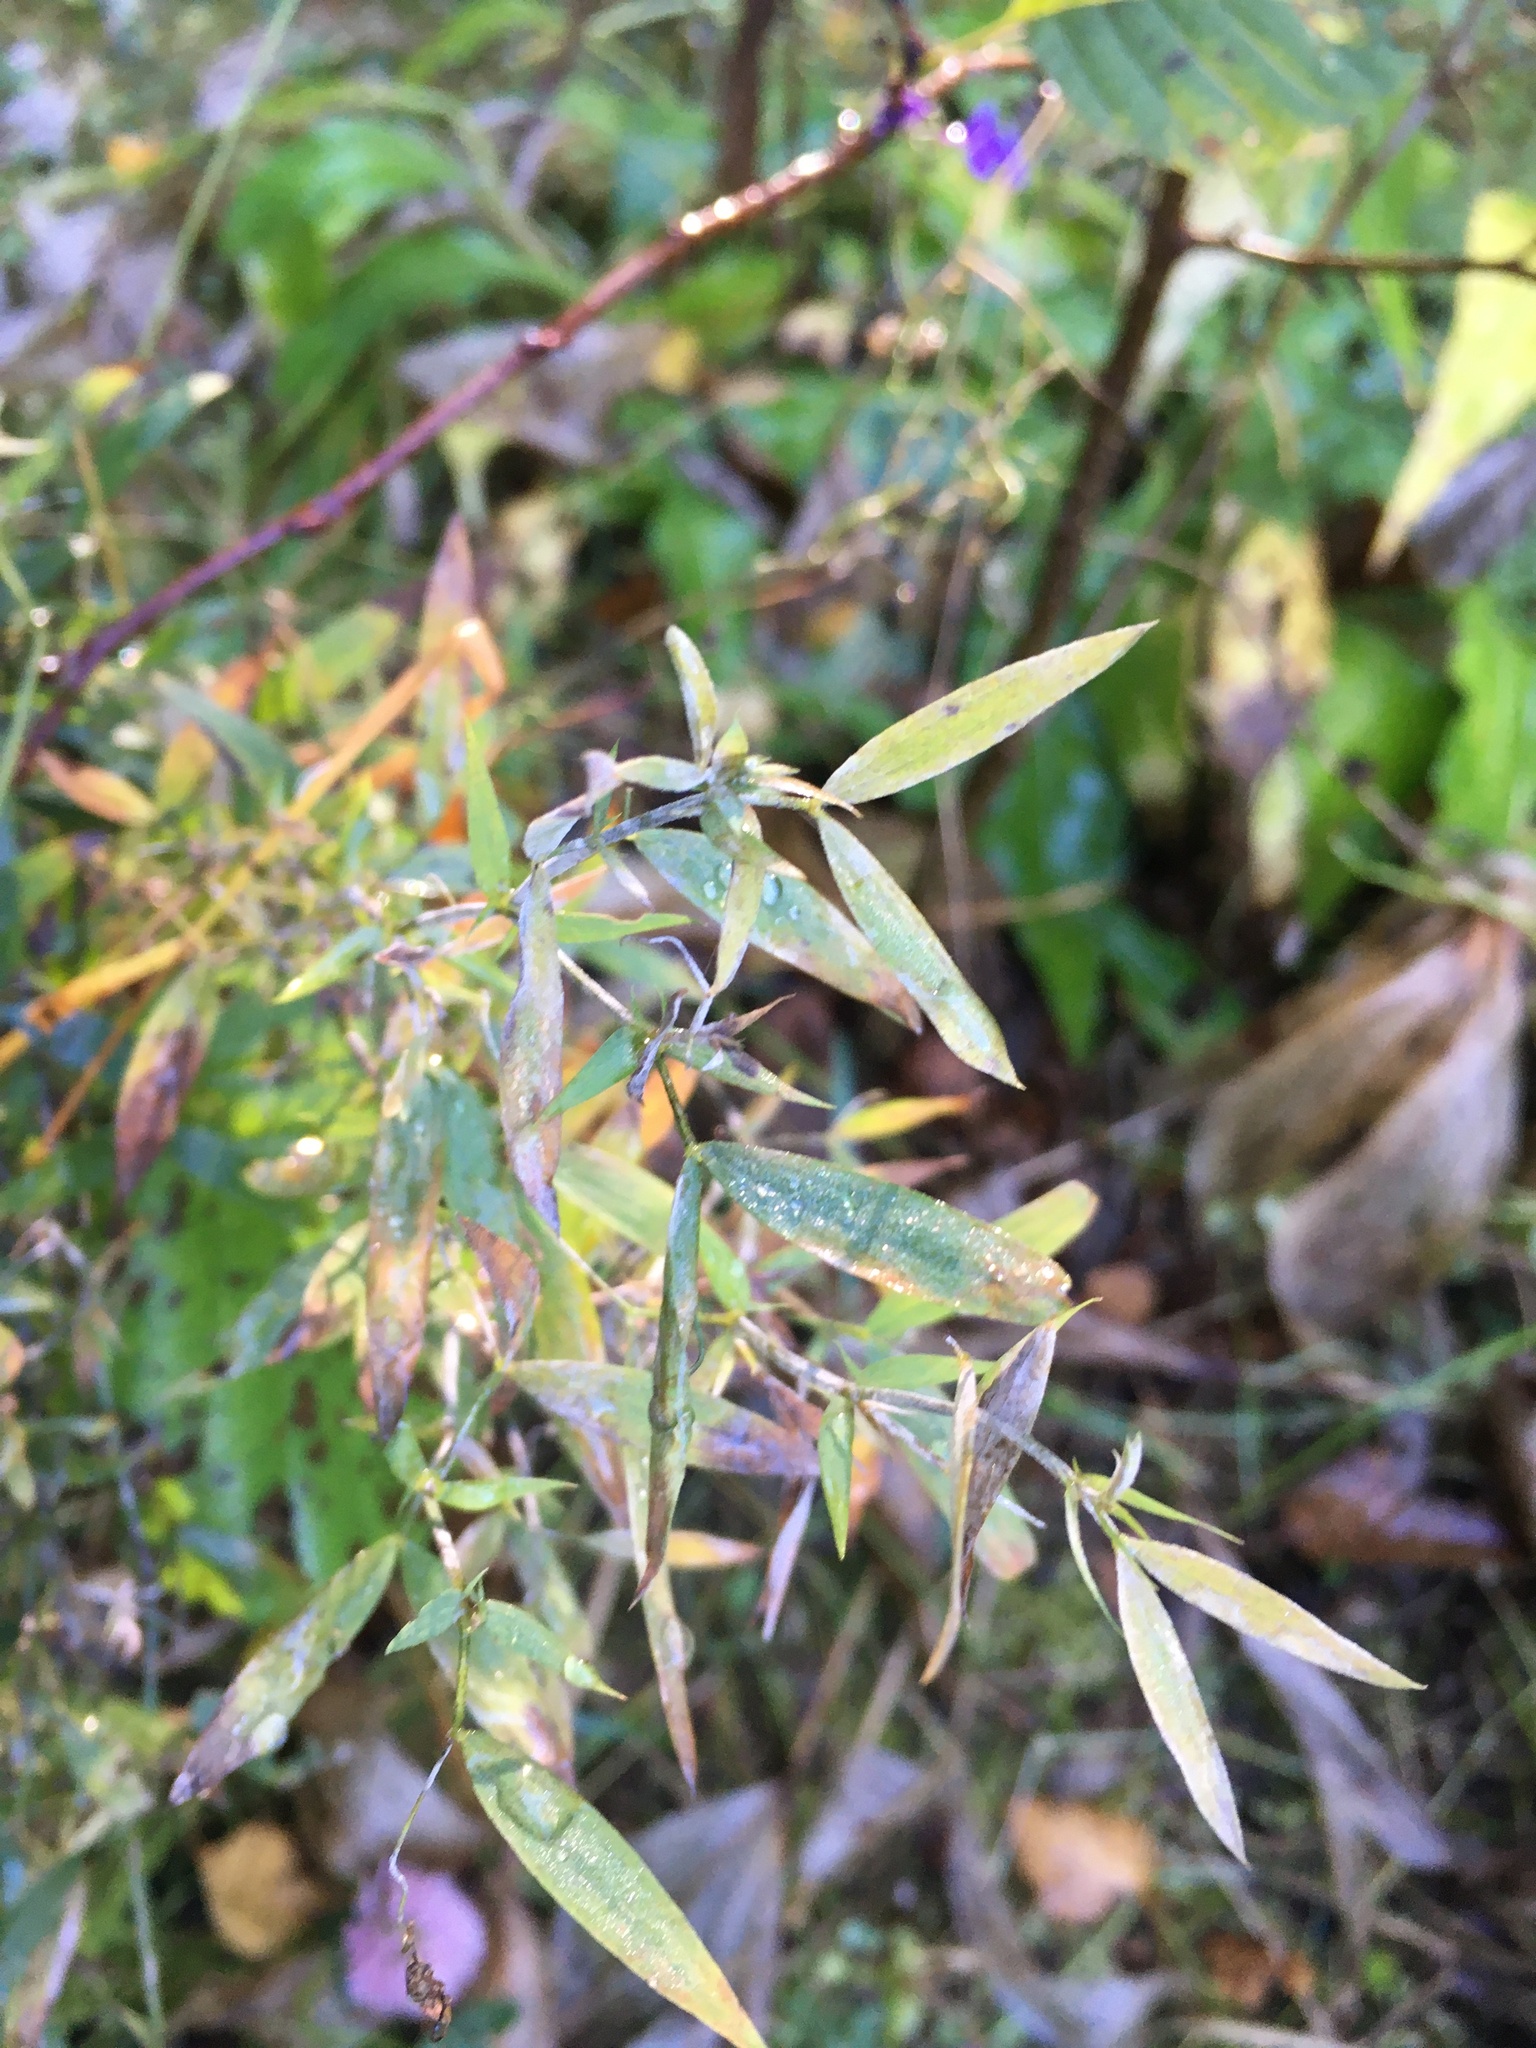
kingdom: Plantae
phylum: Tracheophyta
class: Magnoliopsida
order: Fabales
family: Fabaceae
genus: Lathyrus
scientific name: Lathyrus pratensis
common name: Meadow vetchling
